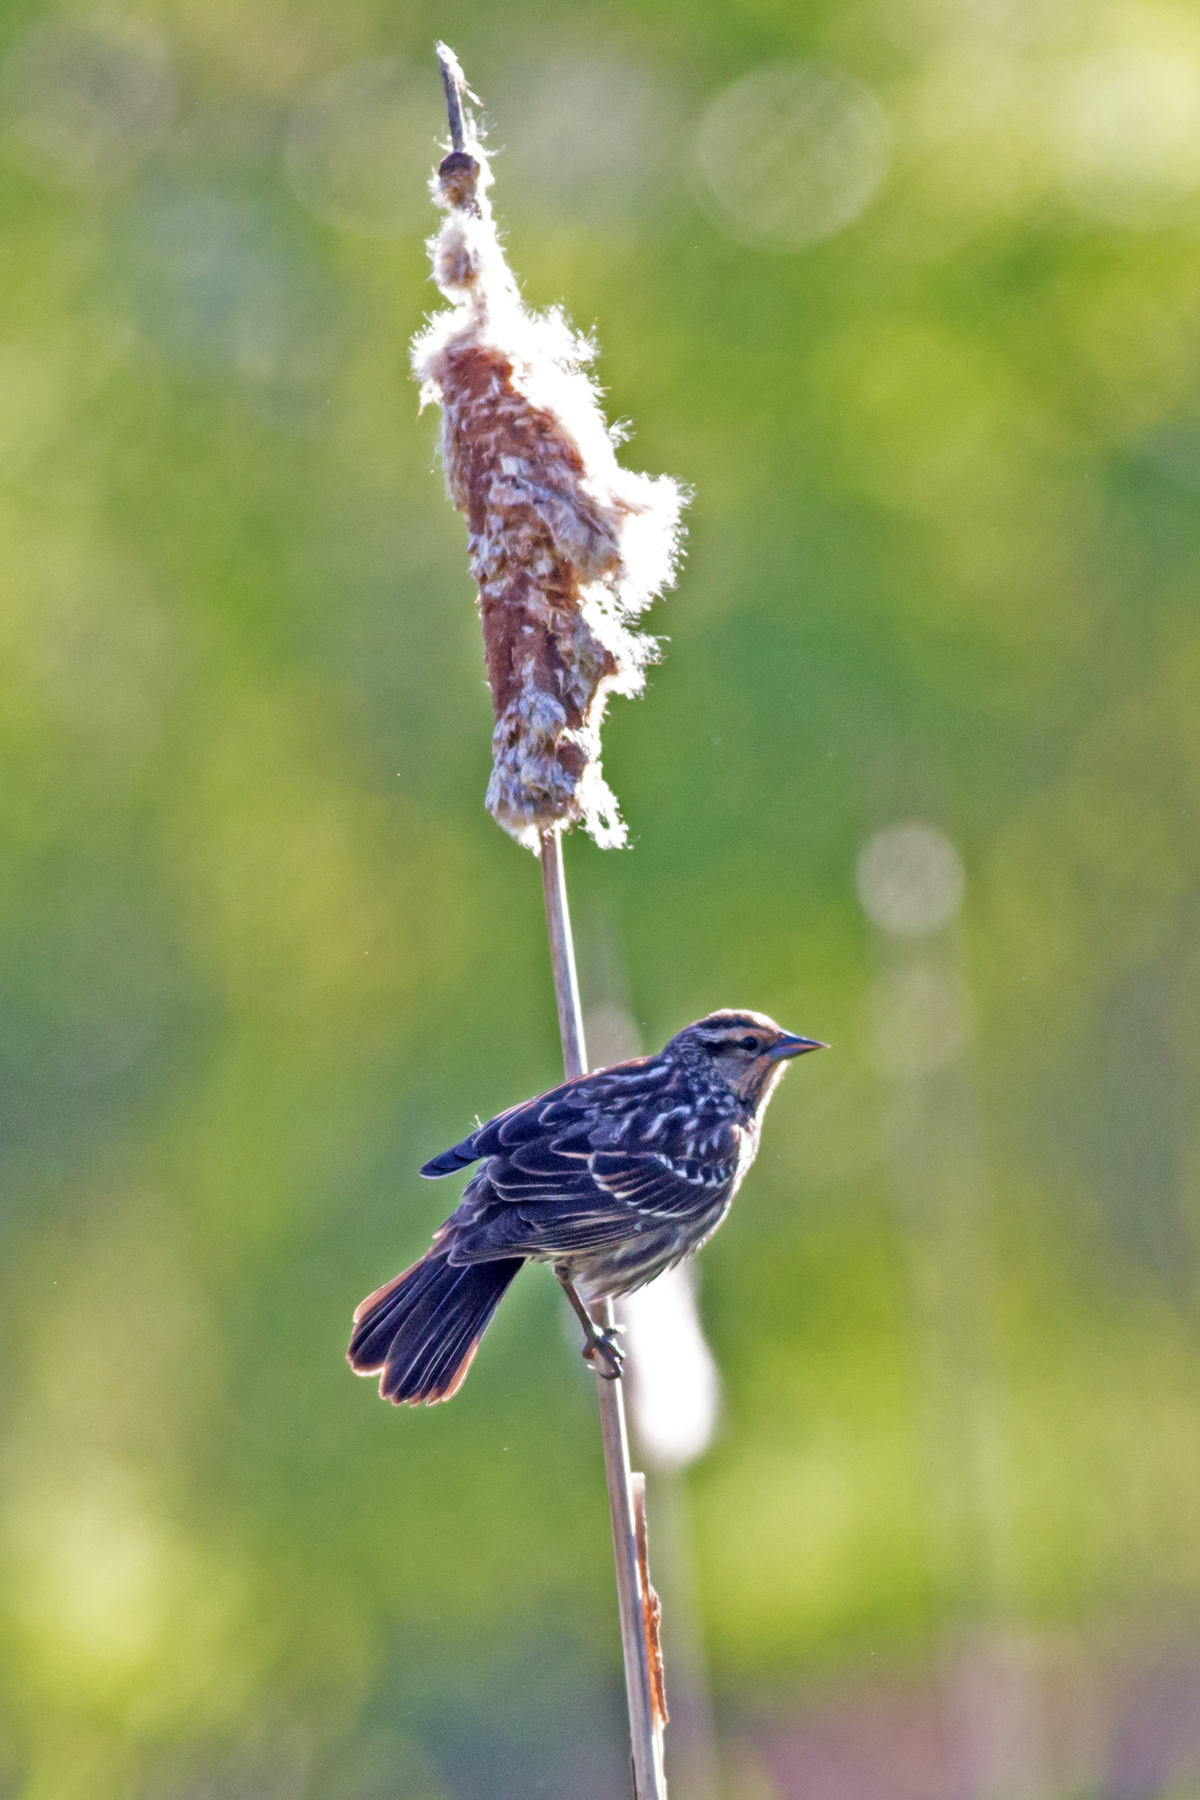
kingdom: Animalia
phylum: Chordata
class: Aves
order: Passeriformes
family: Icteridae
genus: Agelaius
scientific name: Agelaius phoeniceus
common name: Red-winged blackbird
